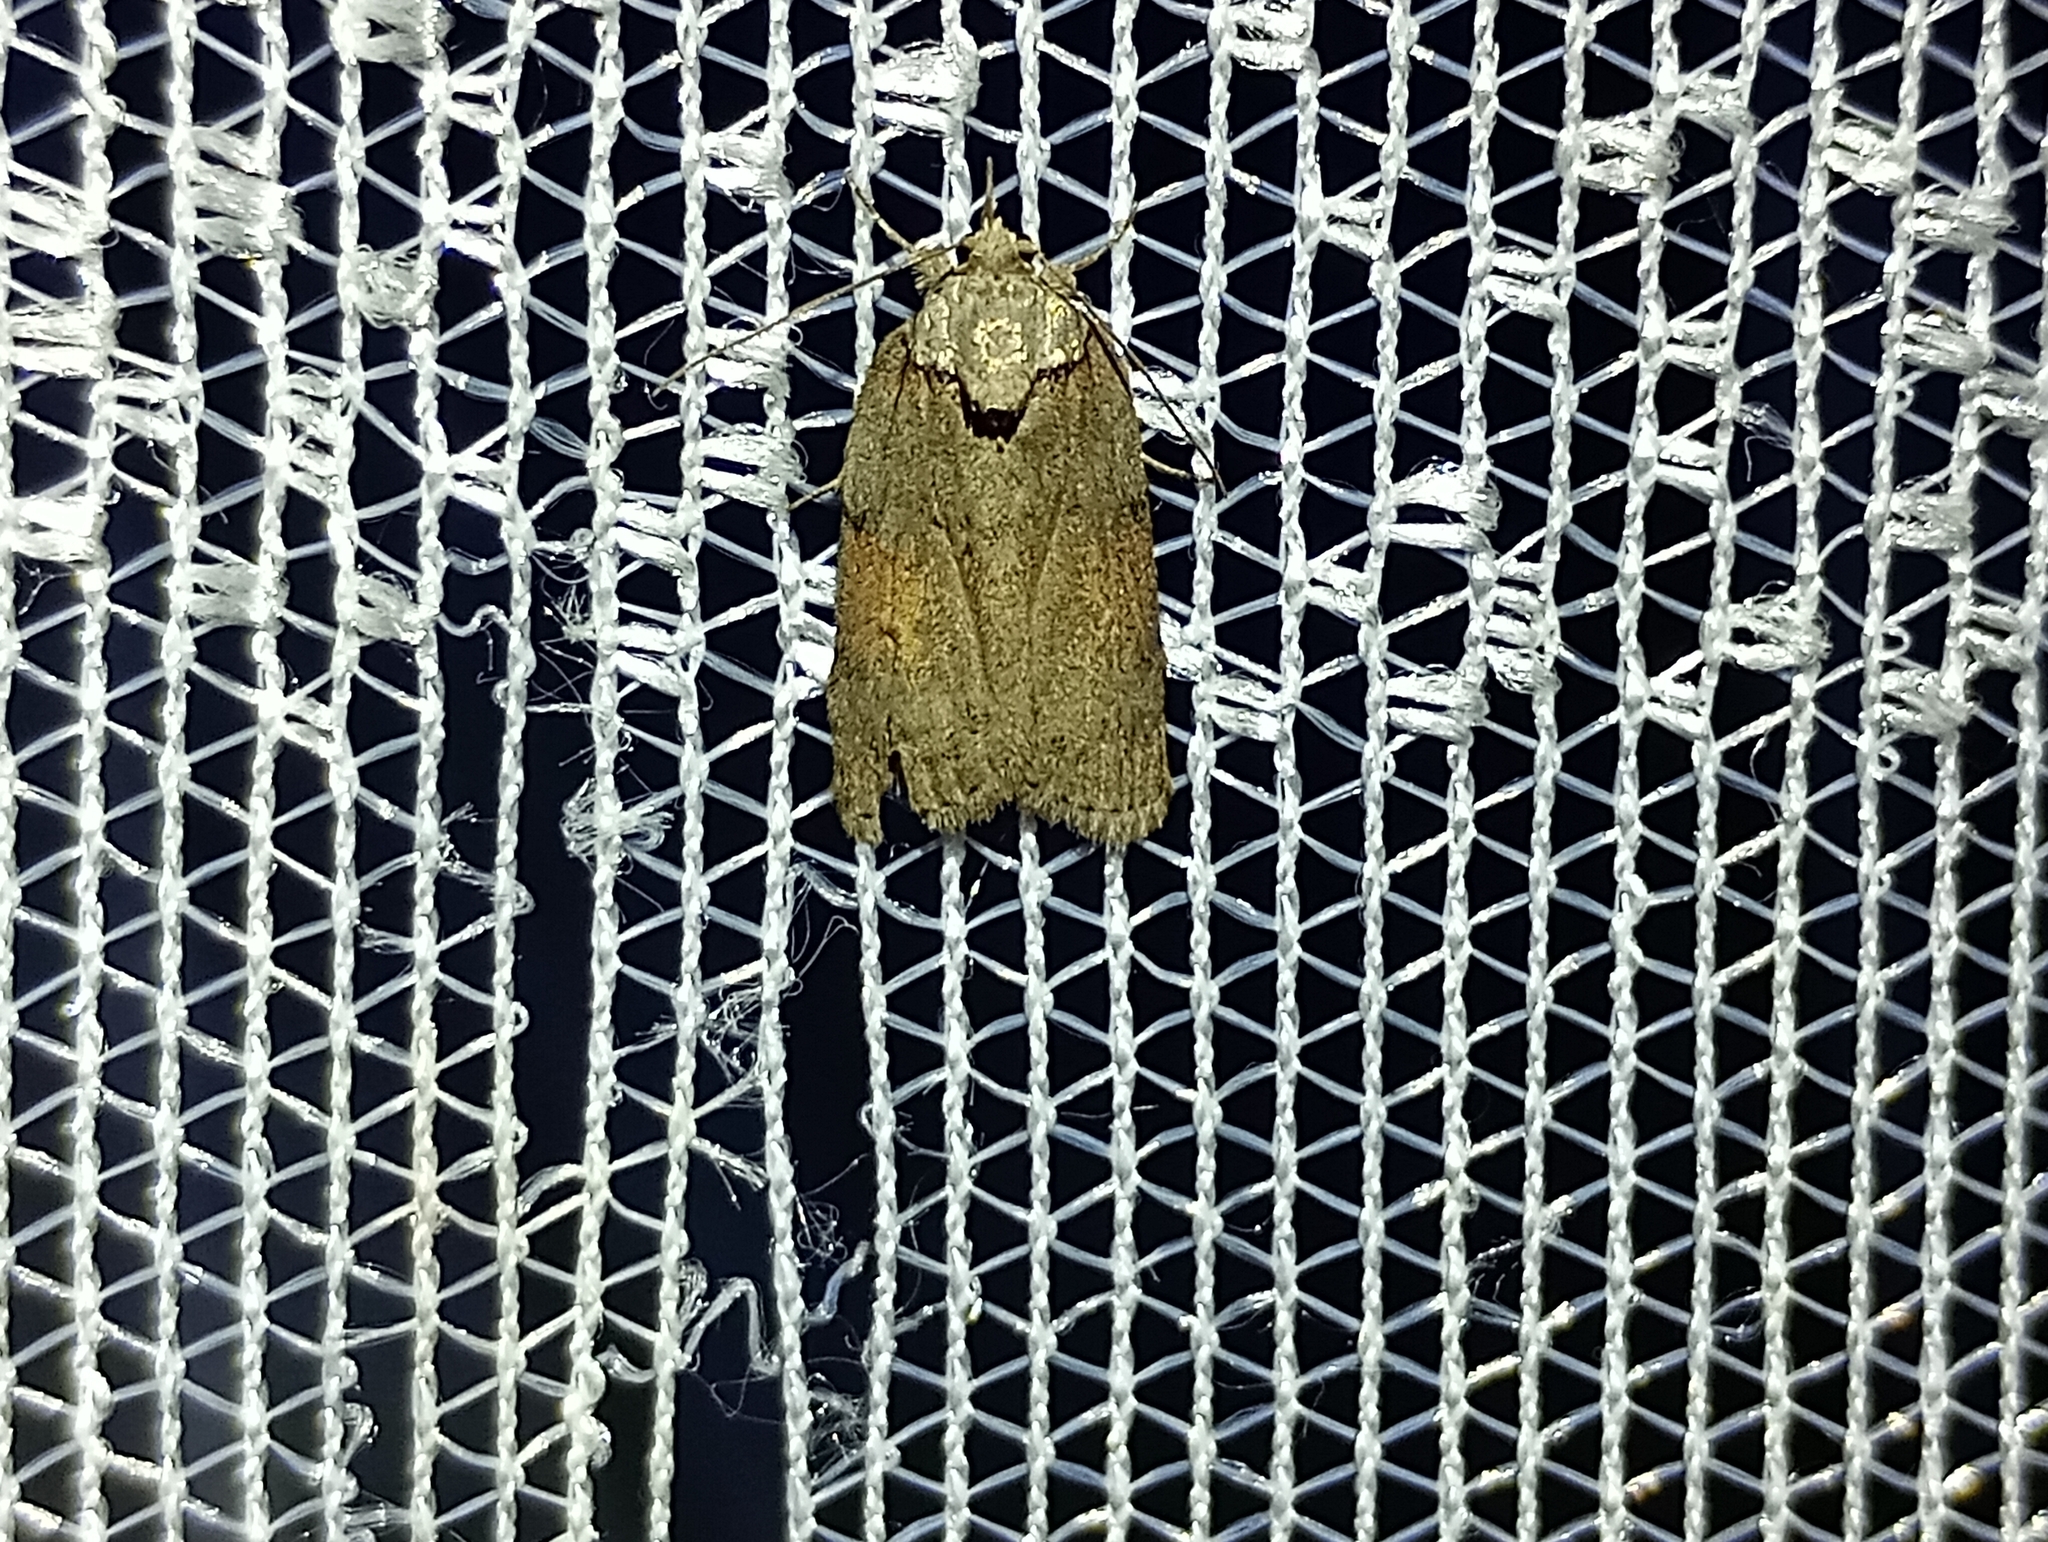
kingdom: Animalia
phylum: Arthropoda
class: Insecta
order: Lepidoptera
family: Nolidae
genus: Nycteola
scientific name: Nycteola revayana
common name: Oak nycteoline
